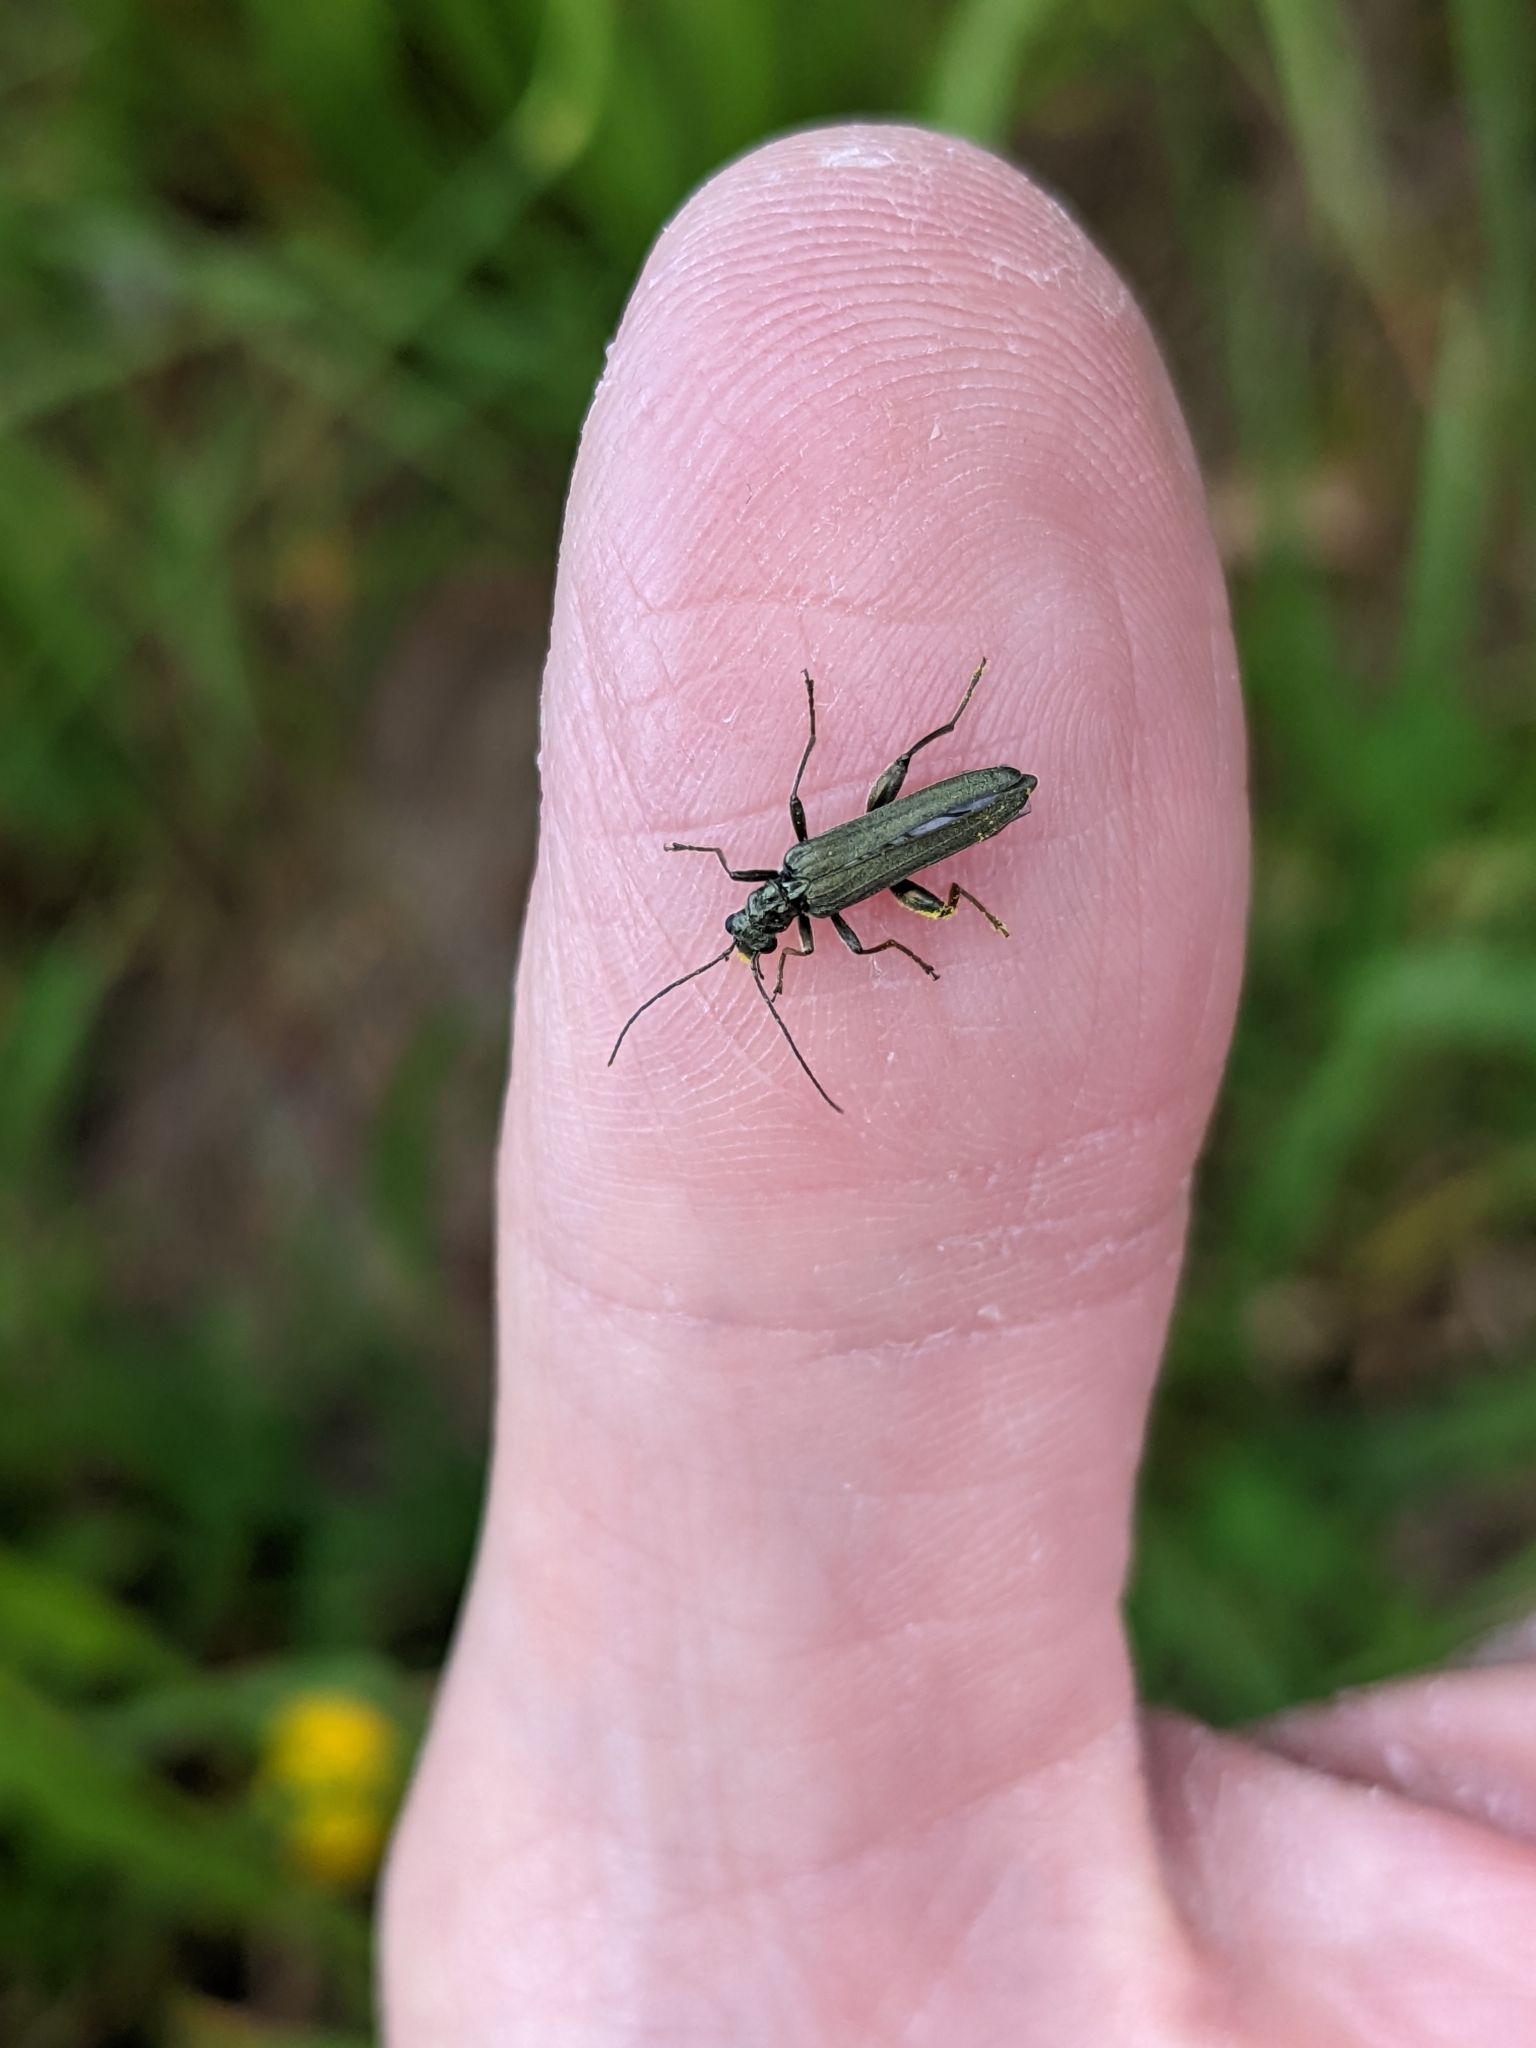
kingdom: Animalia
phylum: Arthropoda
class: Insecta
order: Coleoptera
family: Oedemeridae
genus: Oedemera
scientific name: Oedemera virescens
